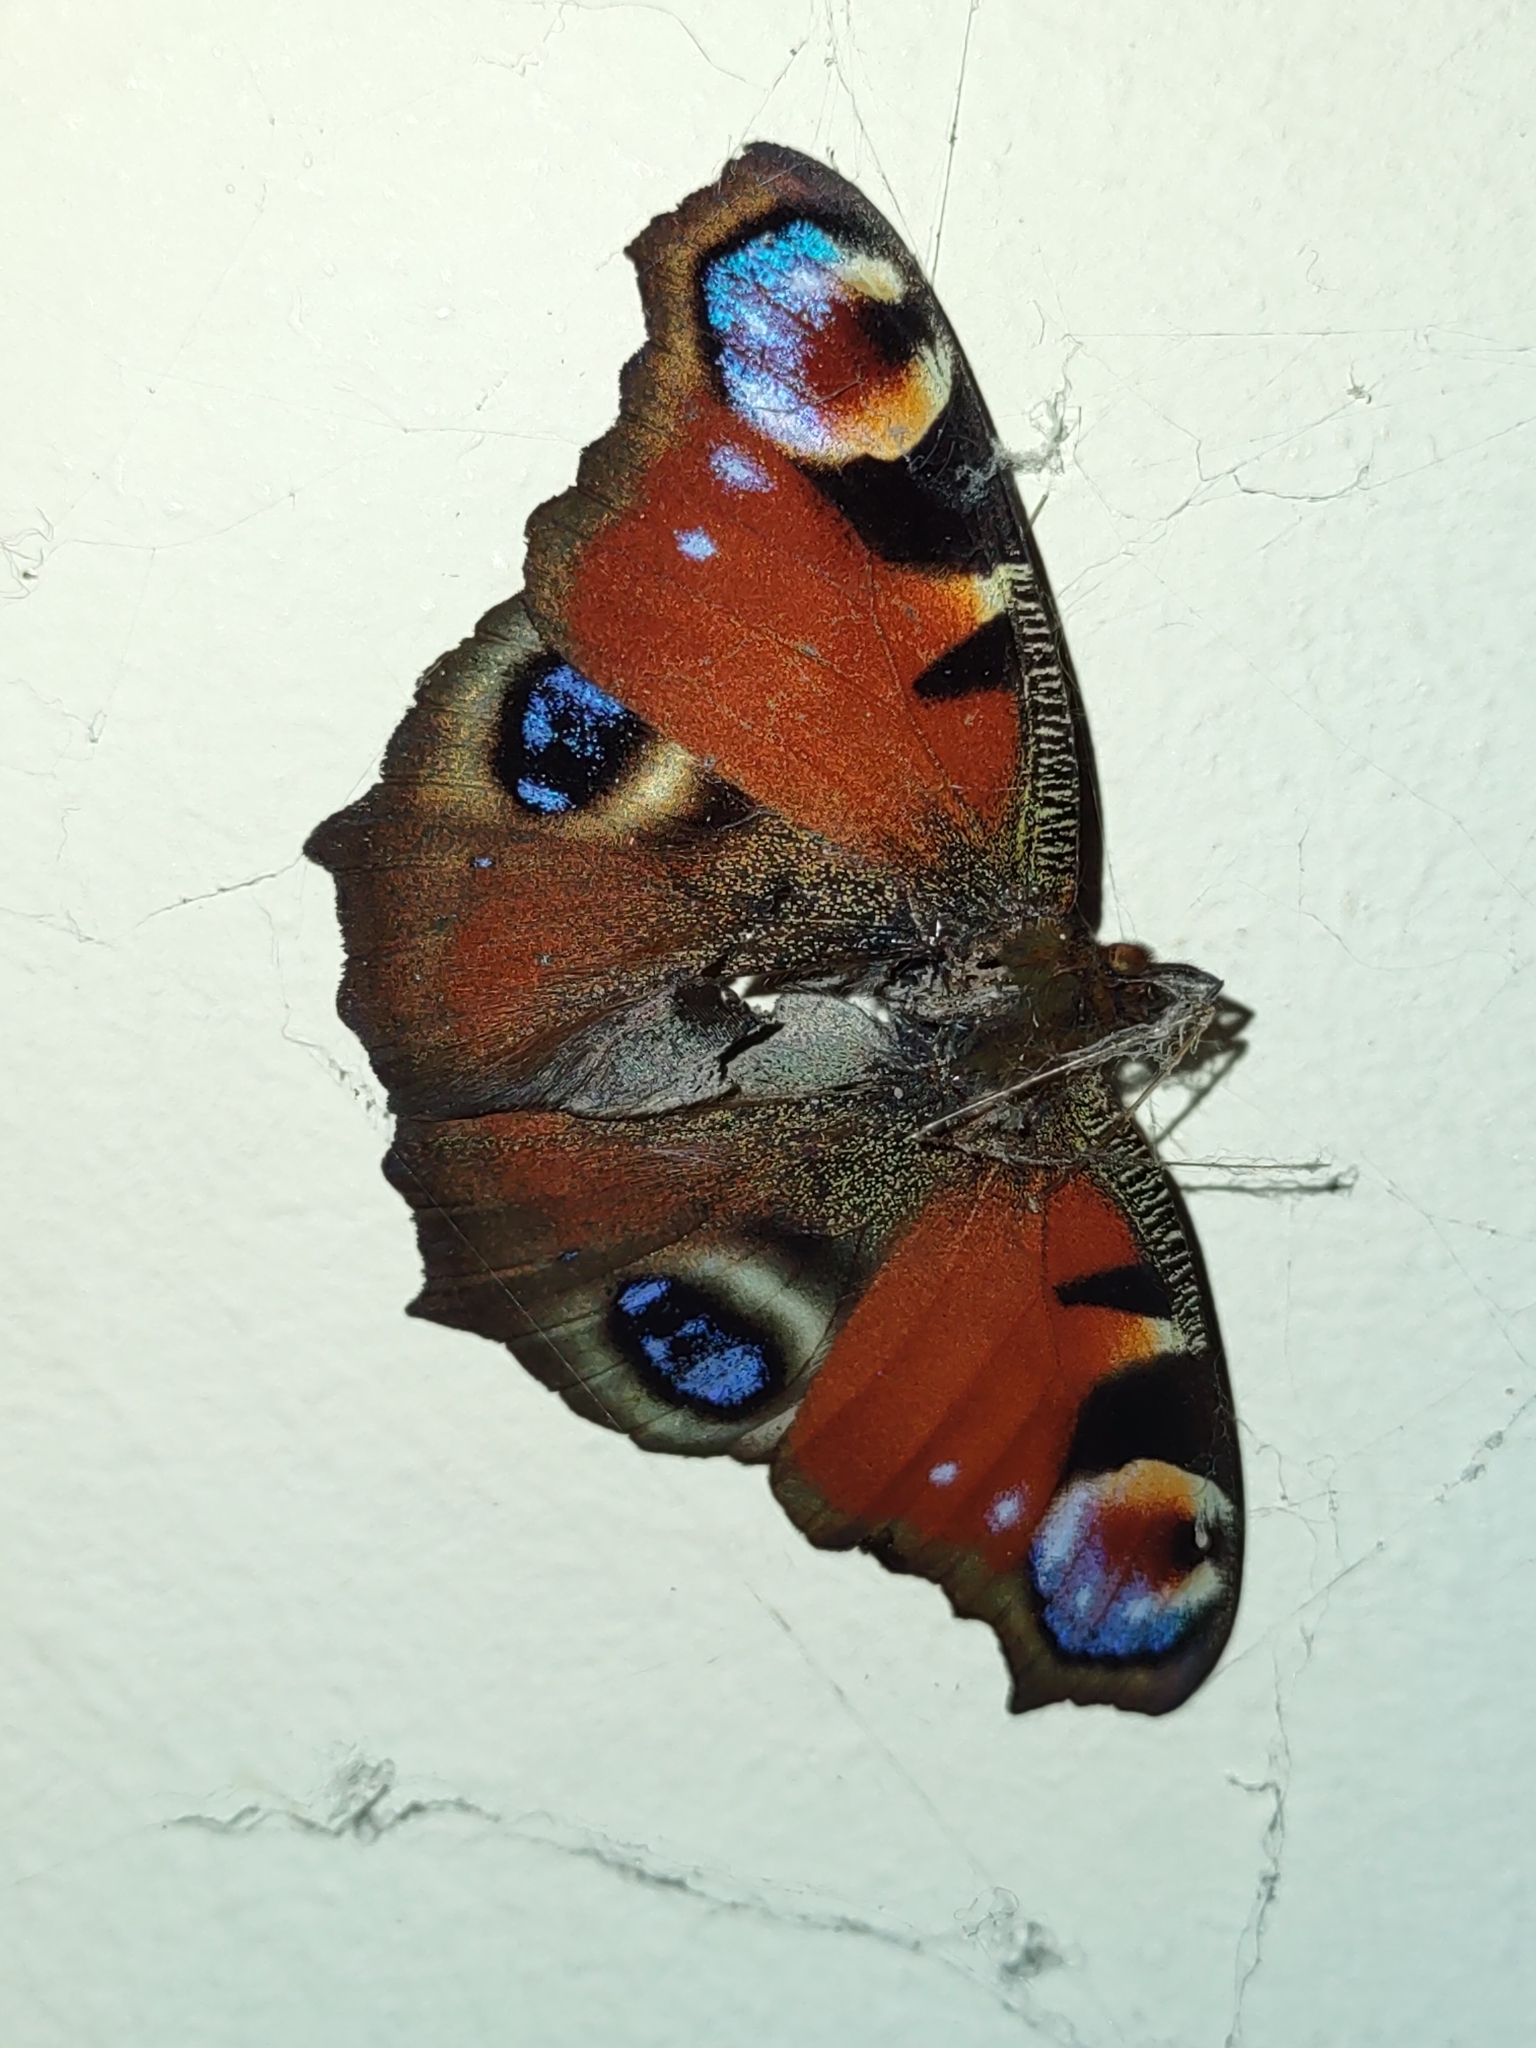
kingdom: Animalia
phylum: Arthropoda
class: Insecta
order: Lepidoptera
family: Nymphalidae
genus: Aglais
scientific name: Aglais io
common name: Peacock
